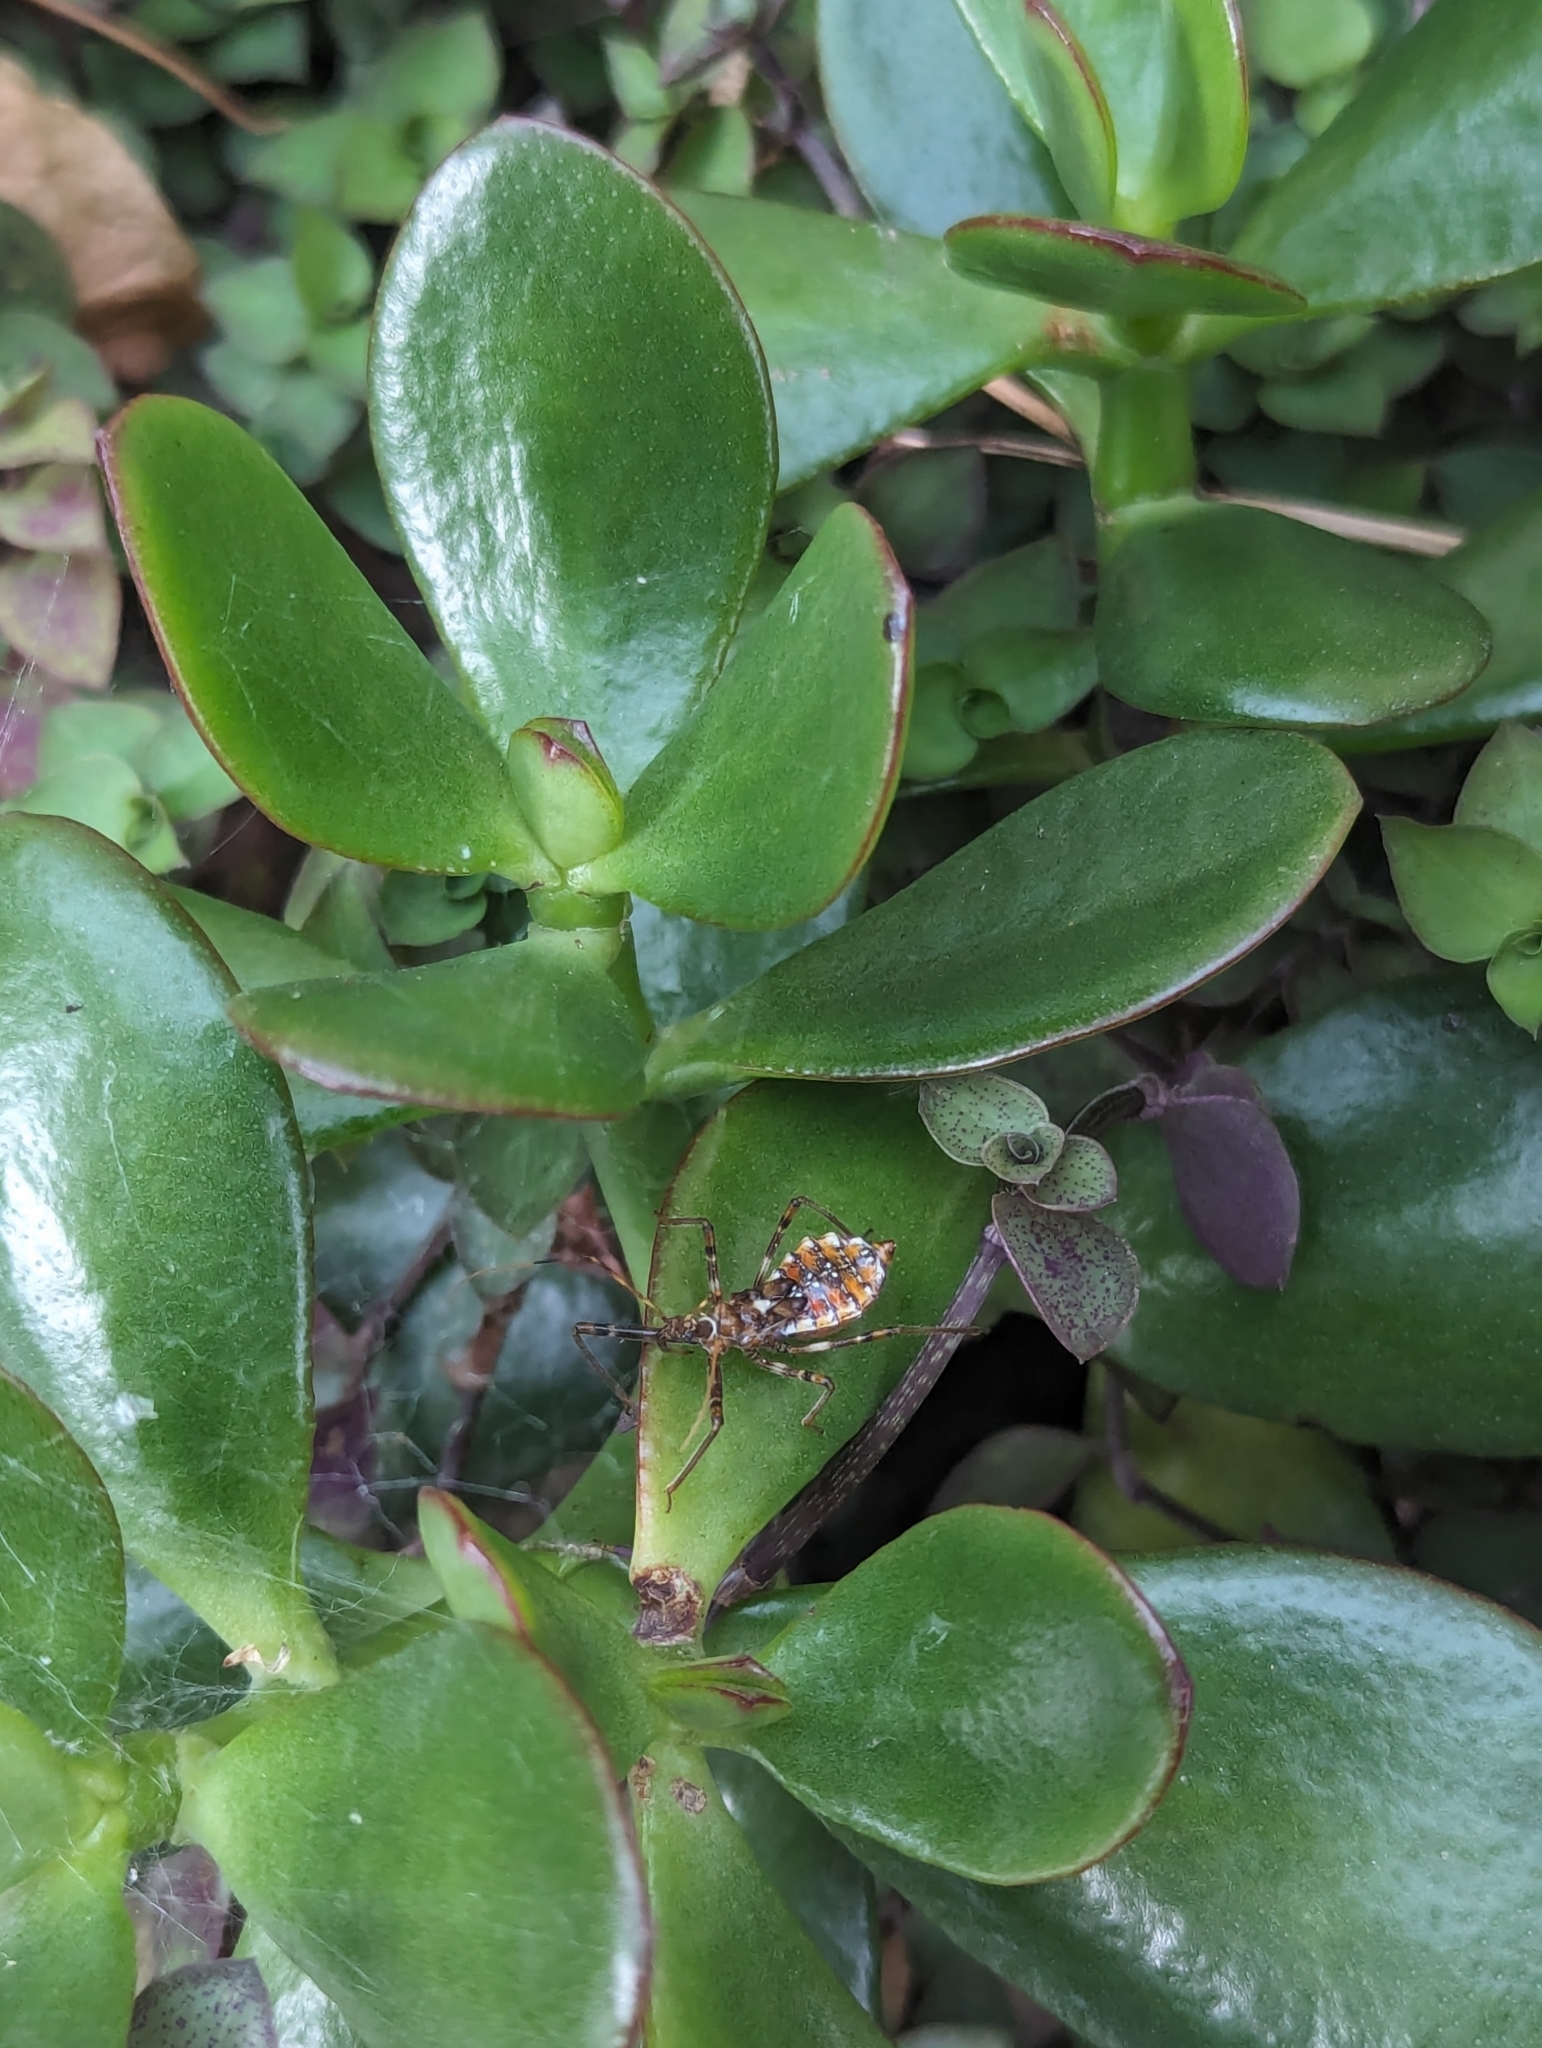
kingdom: Animalia
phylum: Arthropoda
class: Insecta
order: Hemiptera
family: Reduviidae
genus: Pristhesancus
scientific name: Pristhesancus plagipennis
